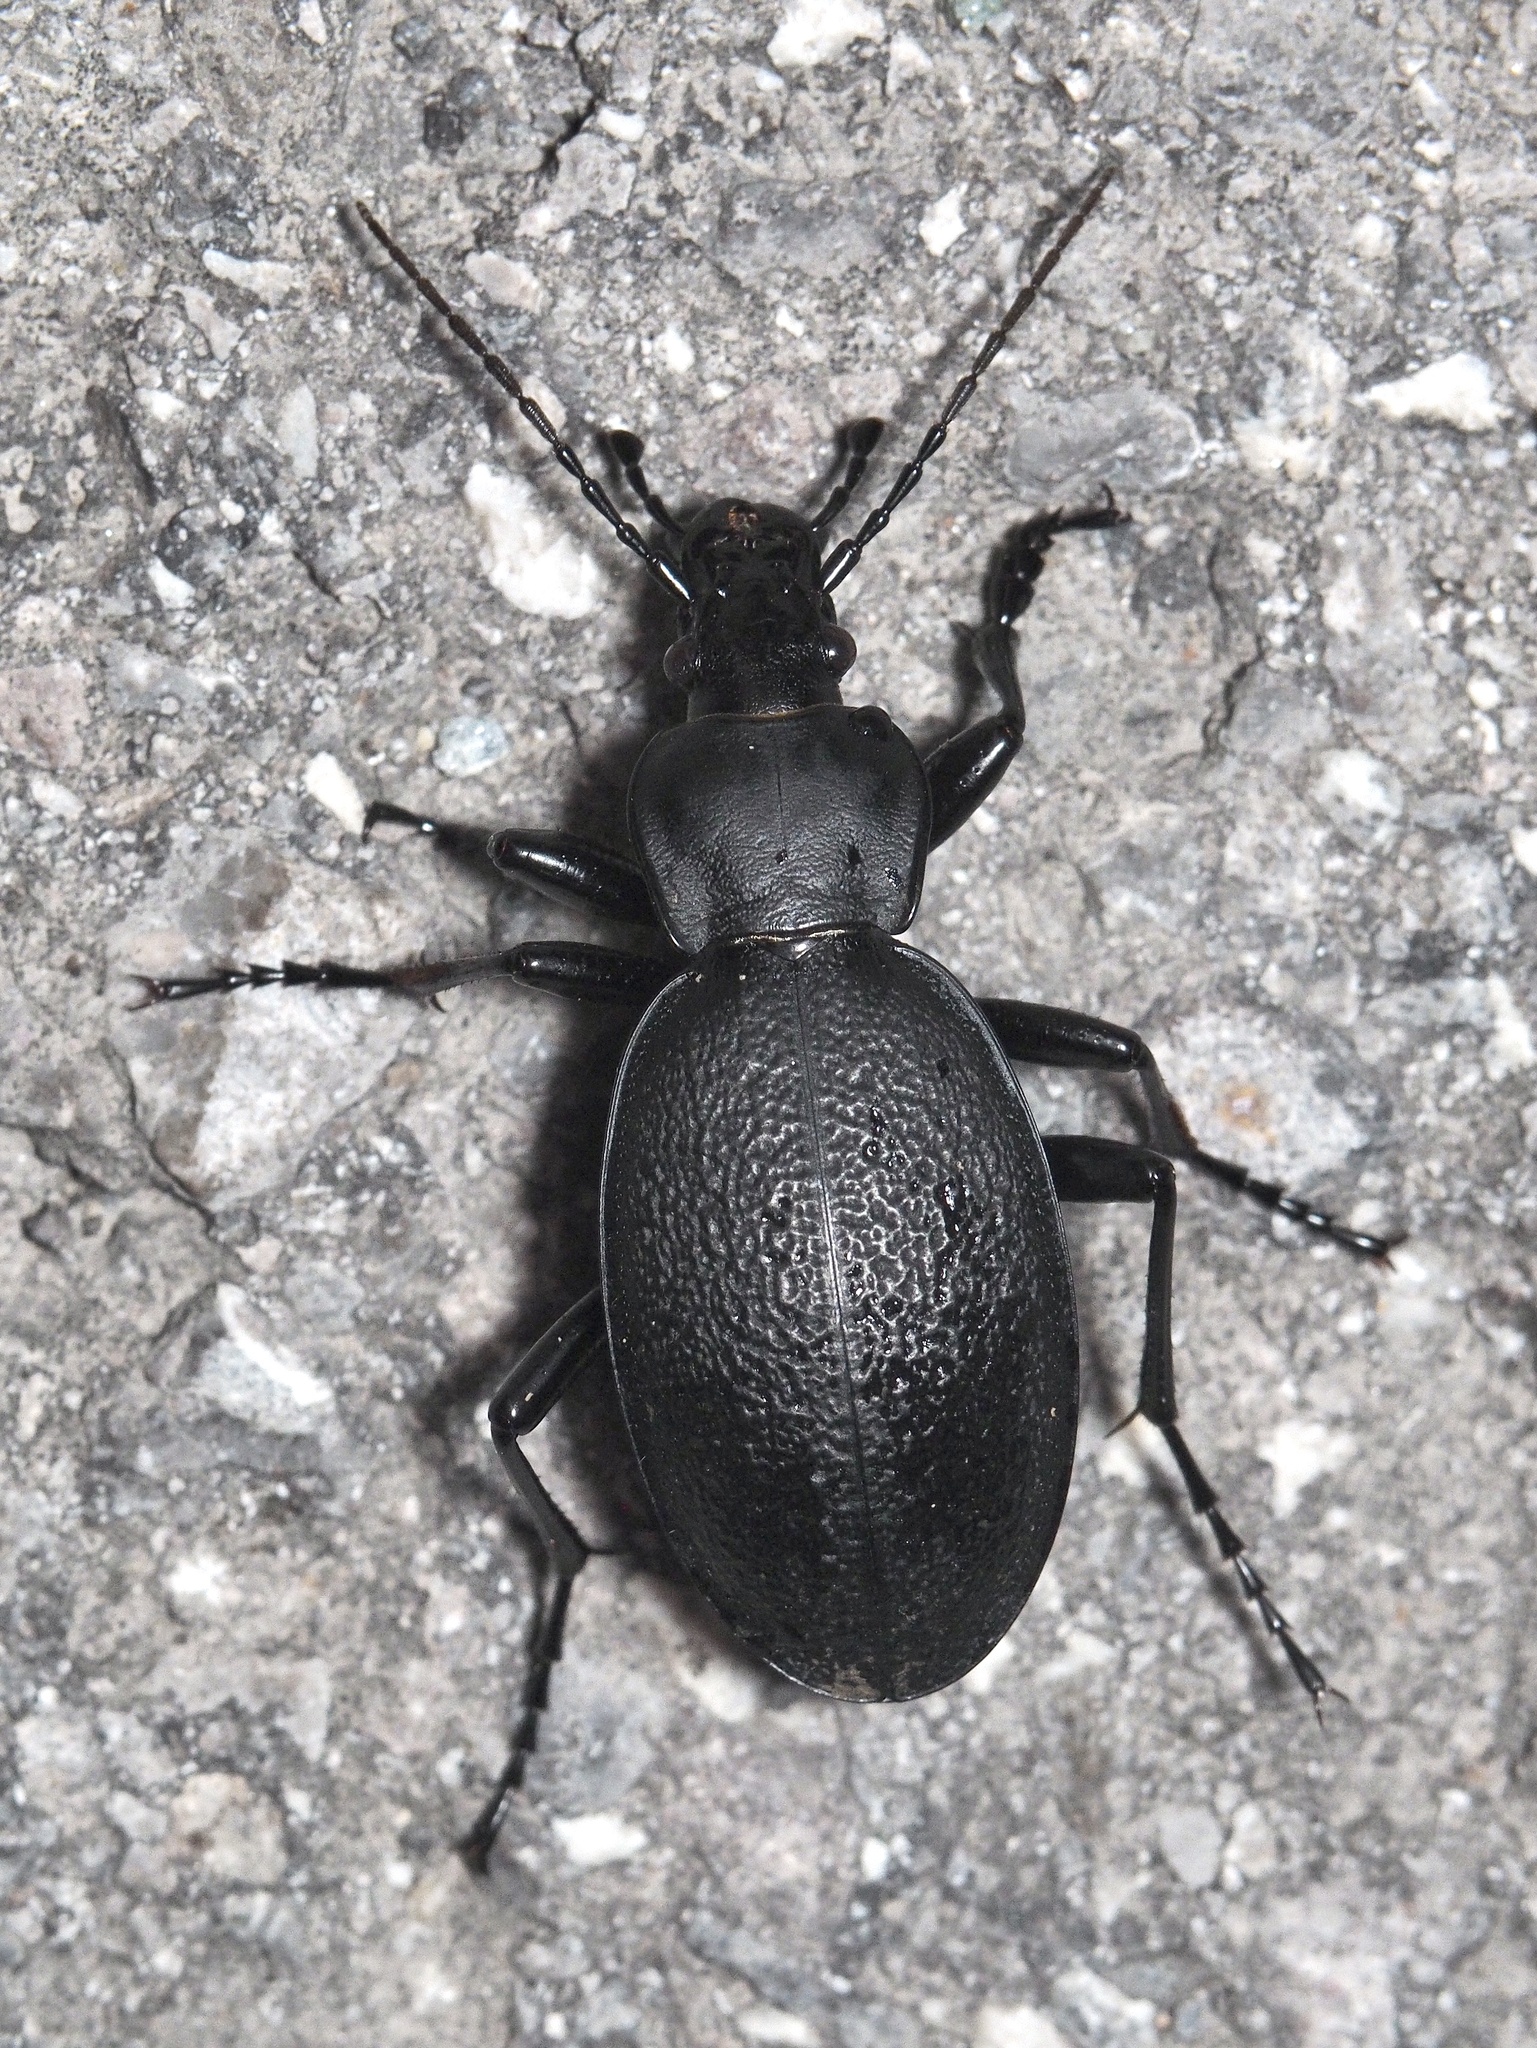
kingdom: Animalia
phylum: Arthropoda
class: Insecta
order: Coleoptera
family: Carabidae
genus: Carabus
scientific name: Carabus coriaceus
